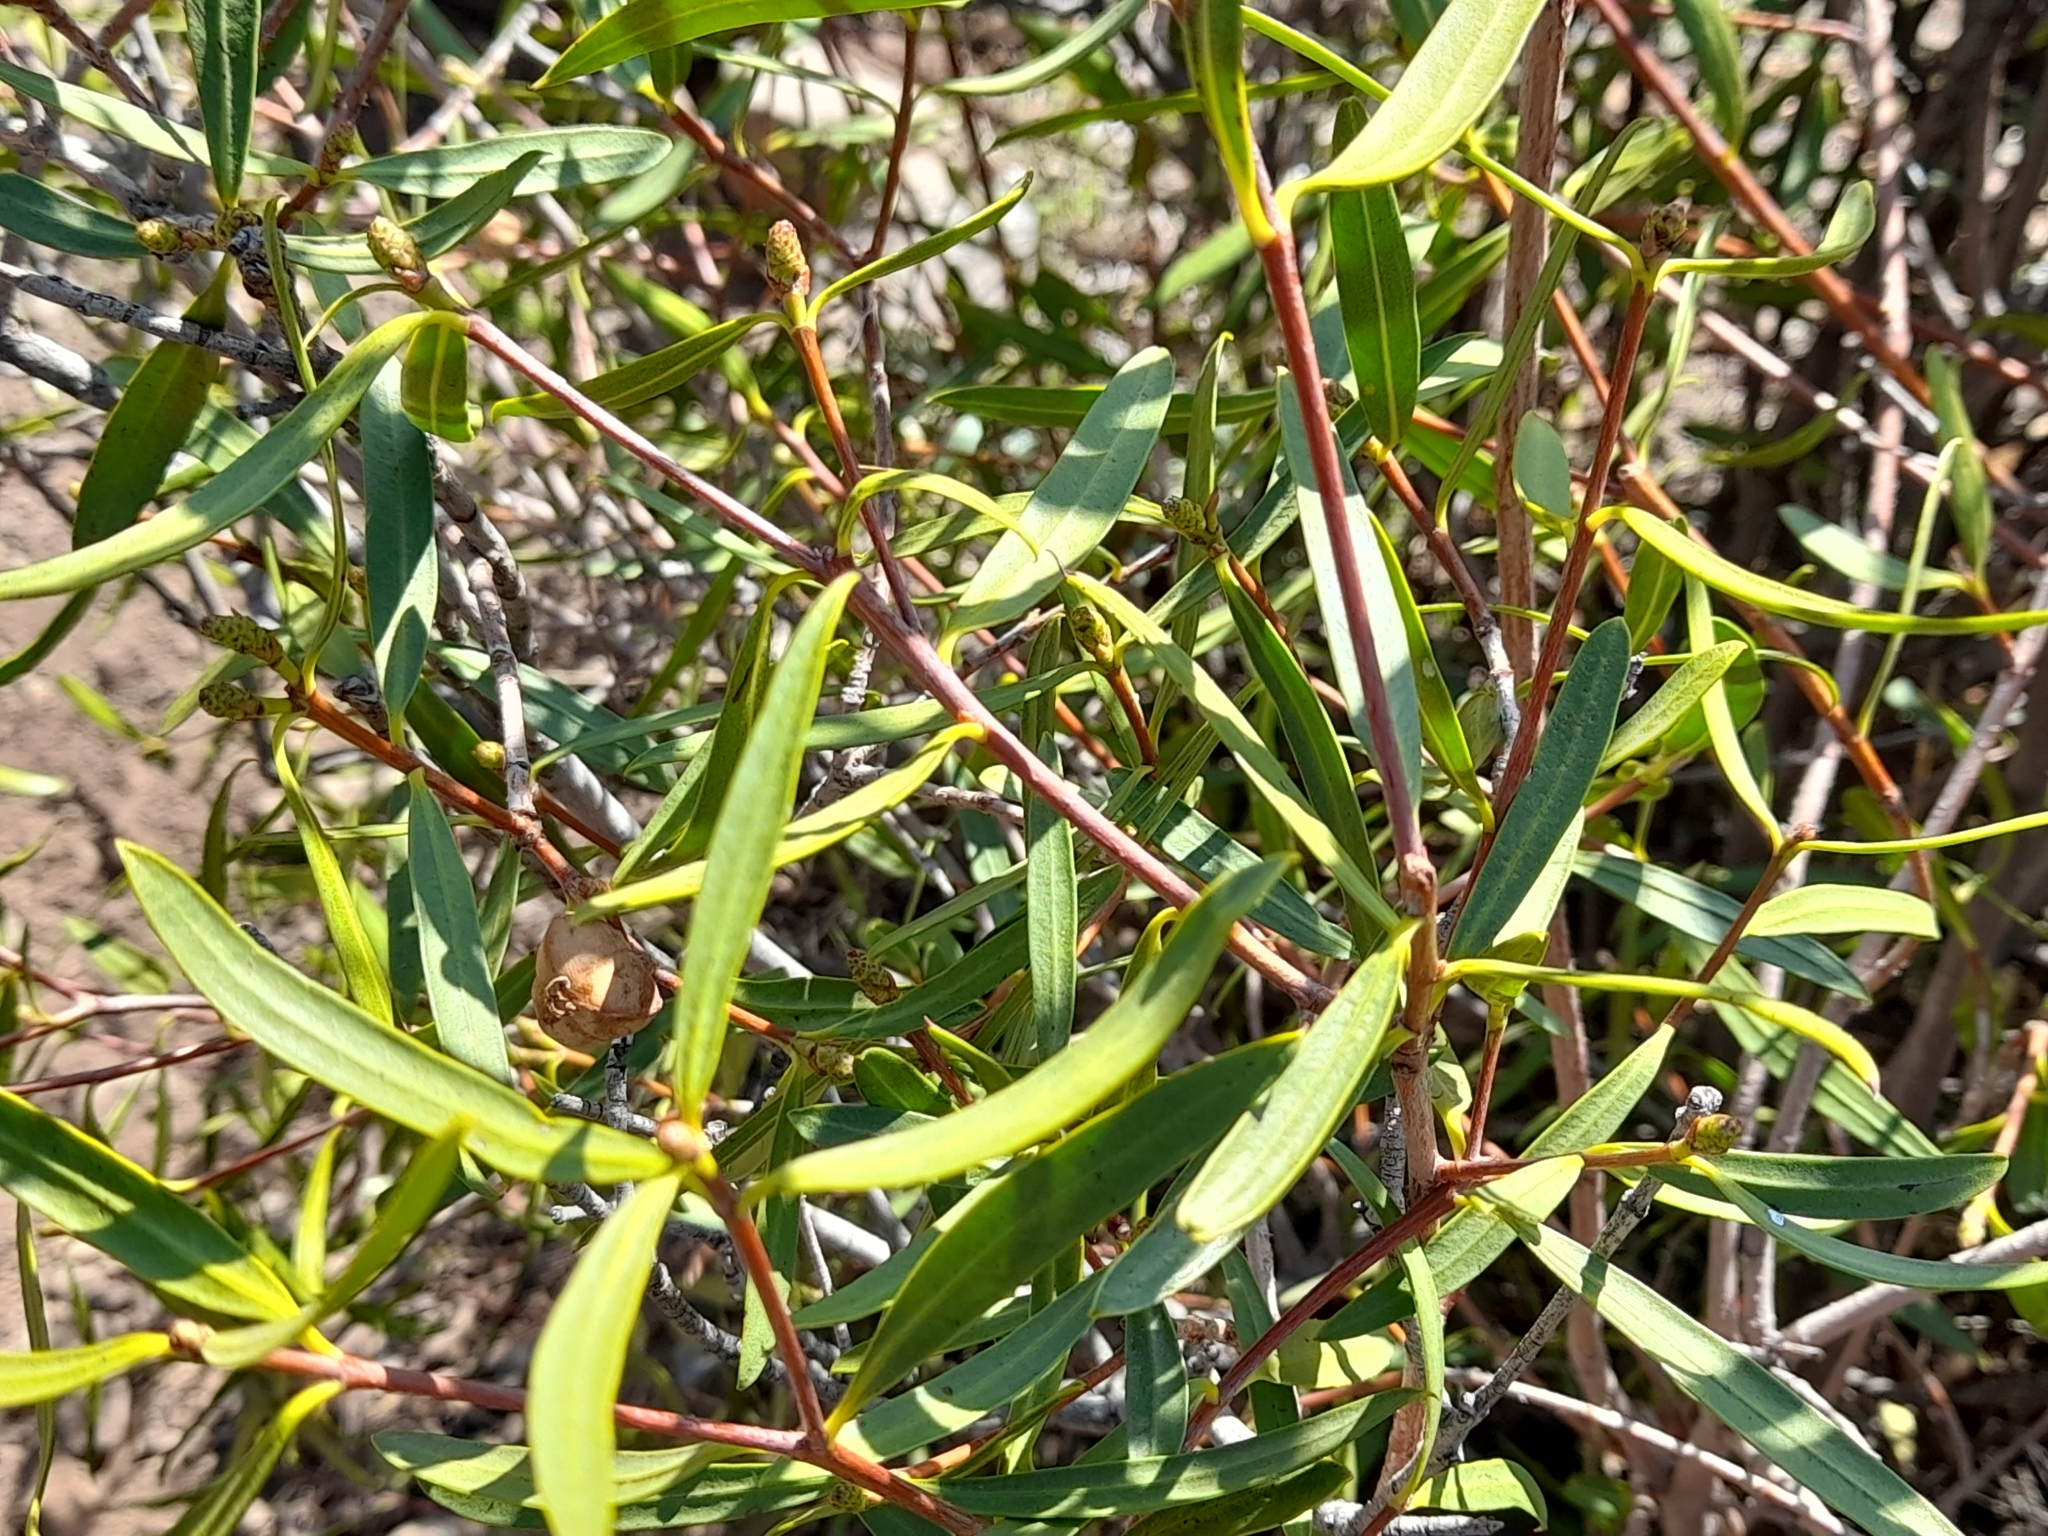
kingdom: Plantae
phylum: Tracheophyta
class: Magnoliopsida
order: Malpighiales
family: Euphorbiaceae
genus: Colliguaja
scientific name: Colliguaja integerrima
